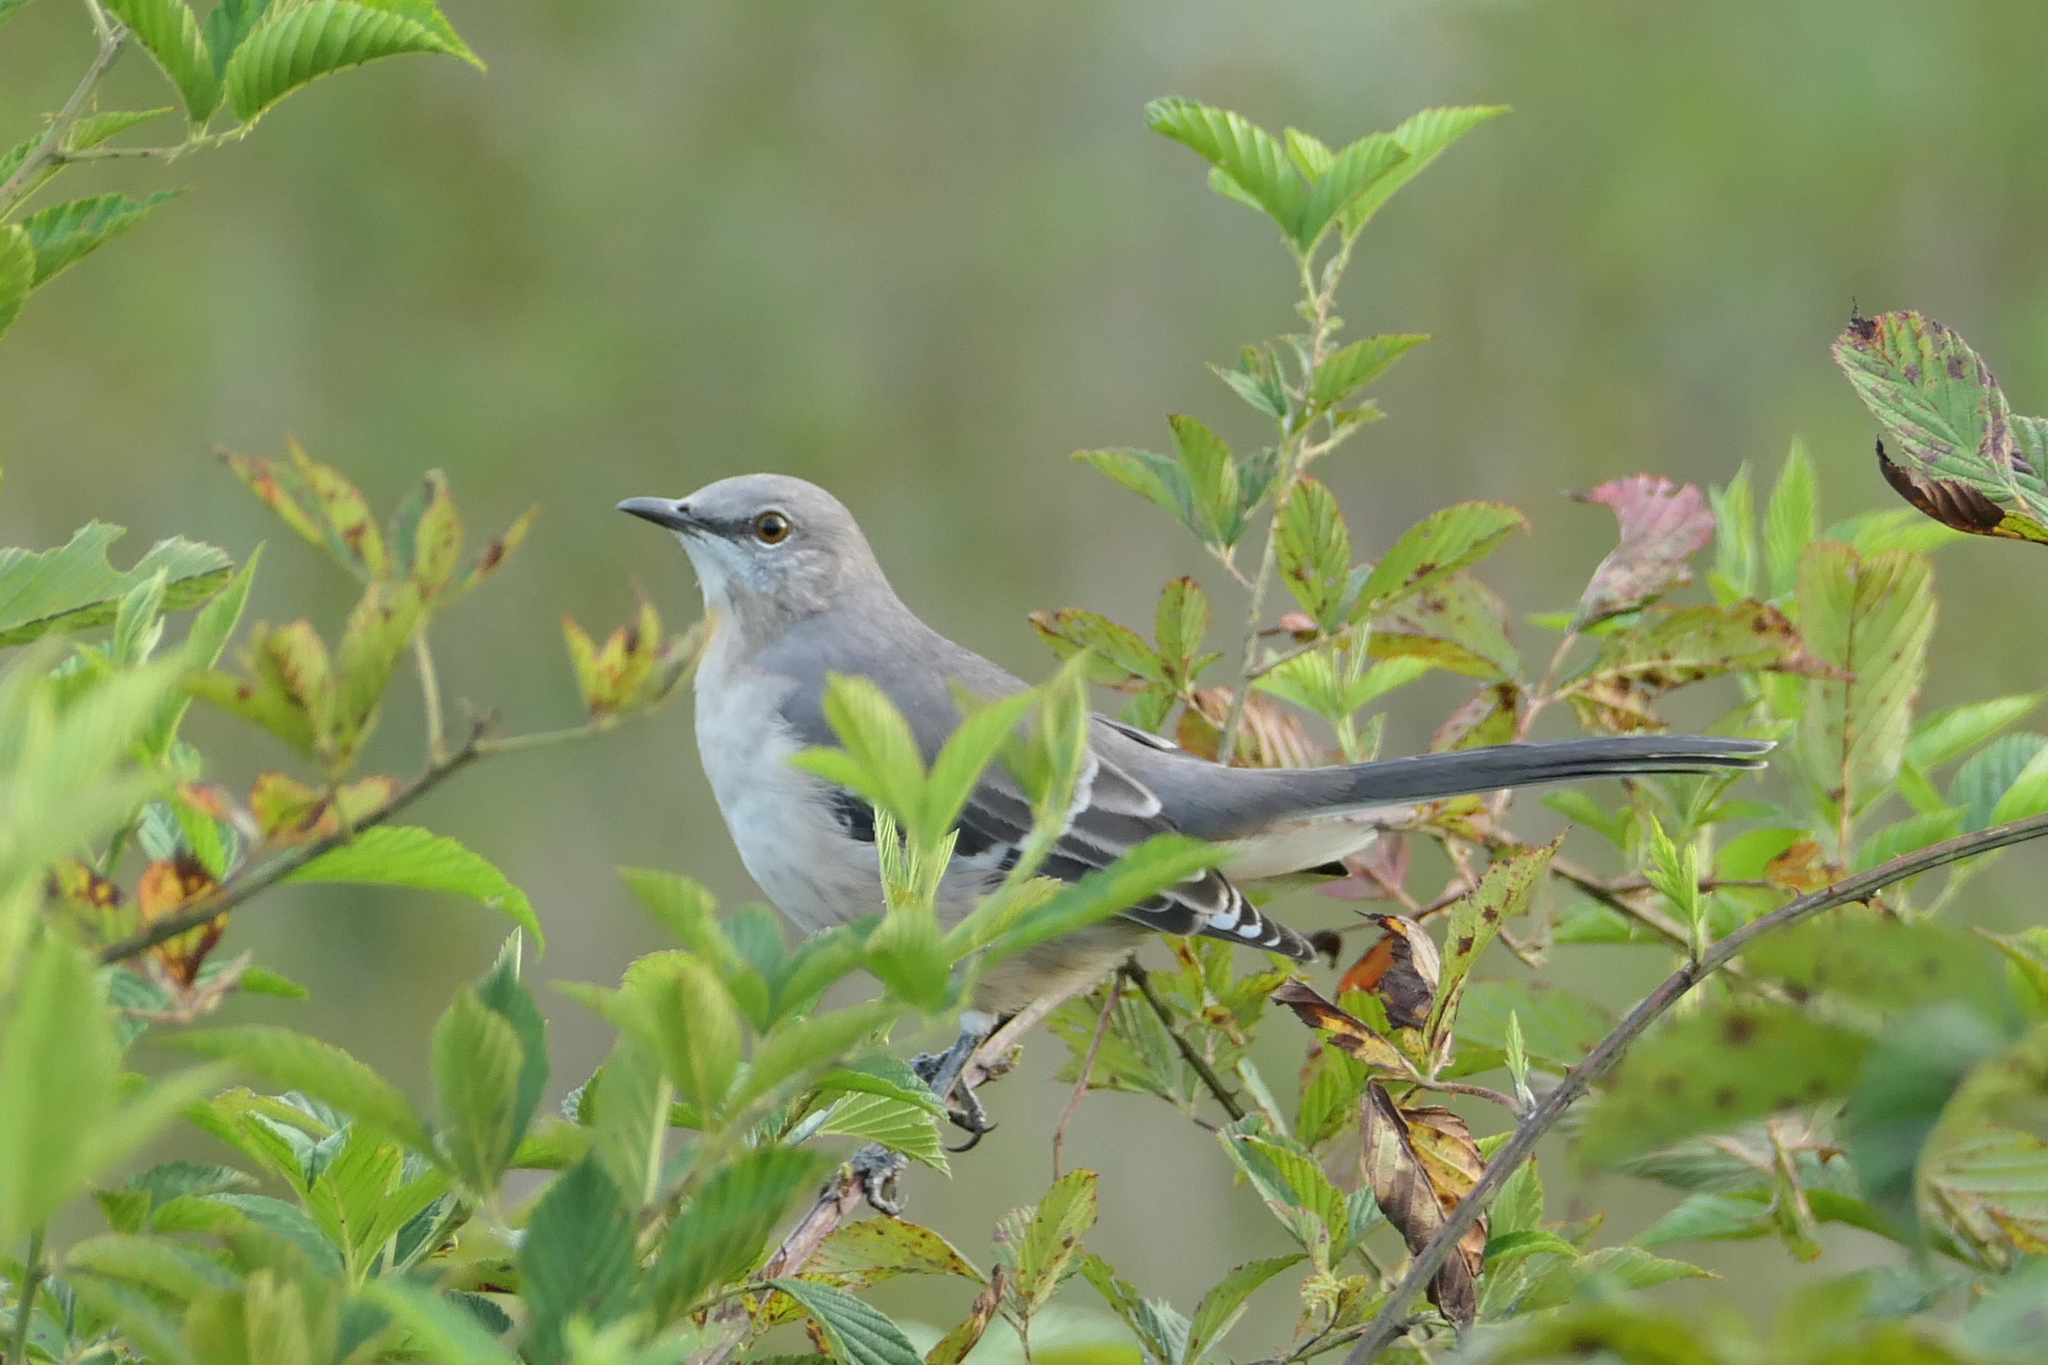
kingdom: Animalia
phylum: Chordata
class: Aves
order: Passeriformes
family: Mimidae
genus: Mimus
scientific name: Mimus polyglottos
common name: Northern mockingbird
